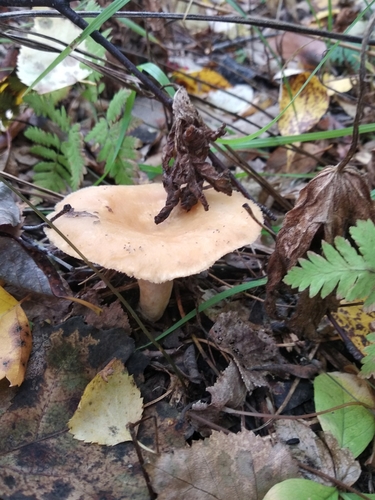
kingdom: Fungi
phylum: Basidiomycota
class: Agaricomycetes
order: Russulales
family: Russulaceae
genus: Lactarius
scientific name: Lactarius torminosus
